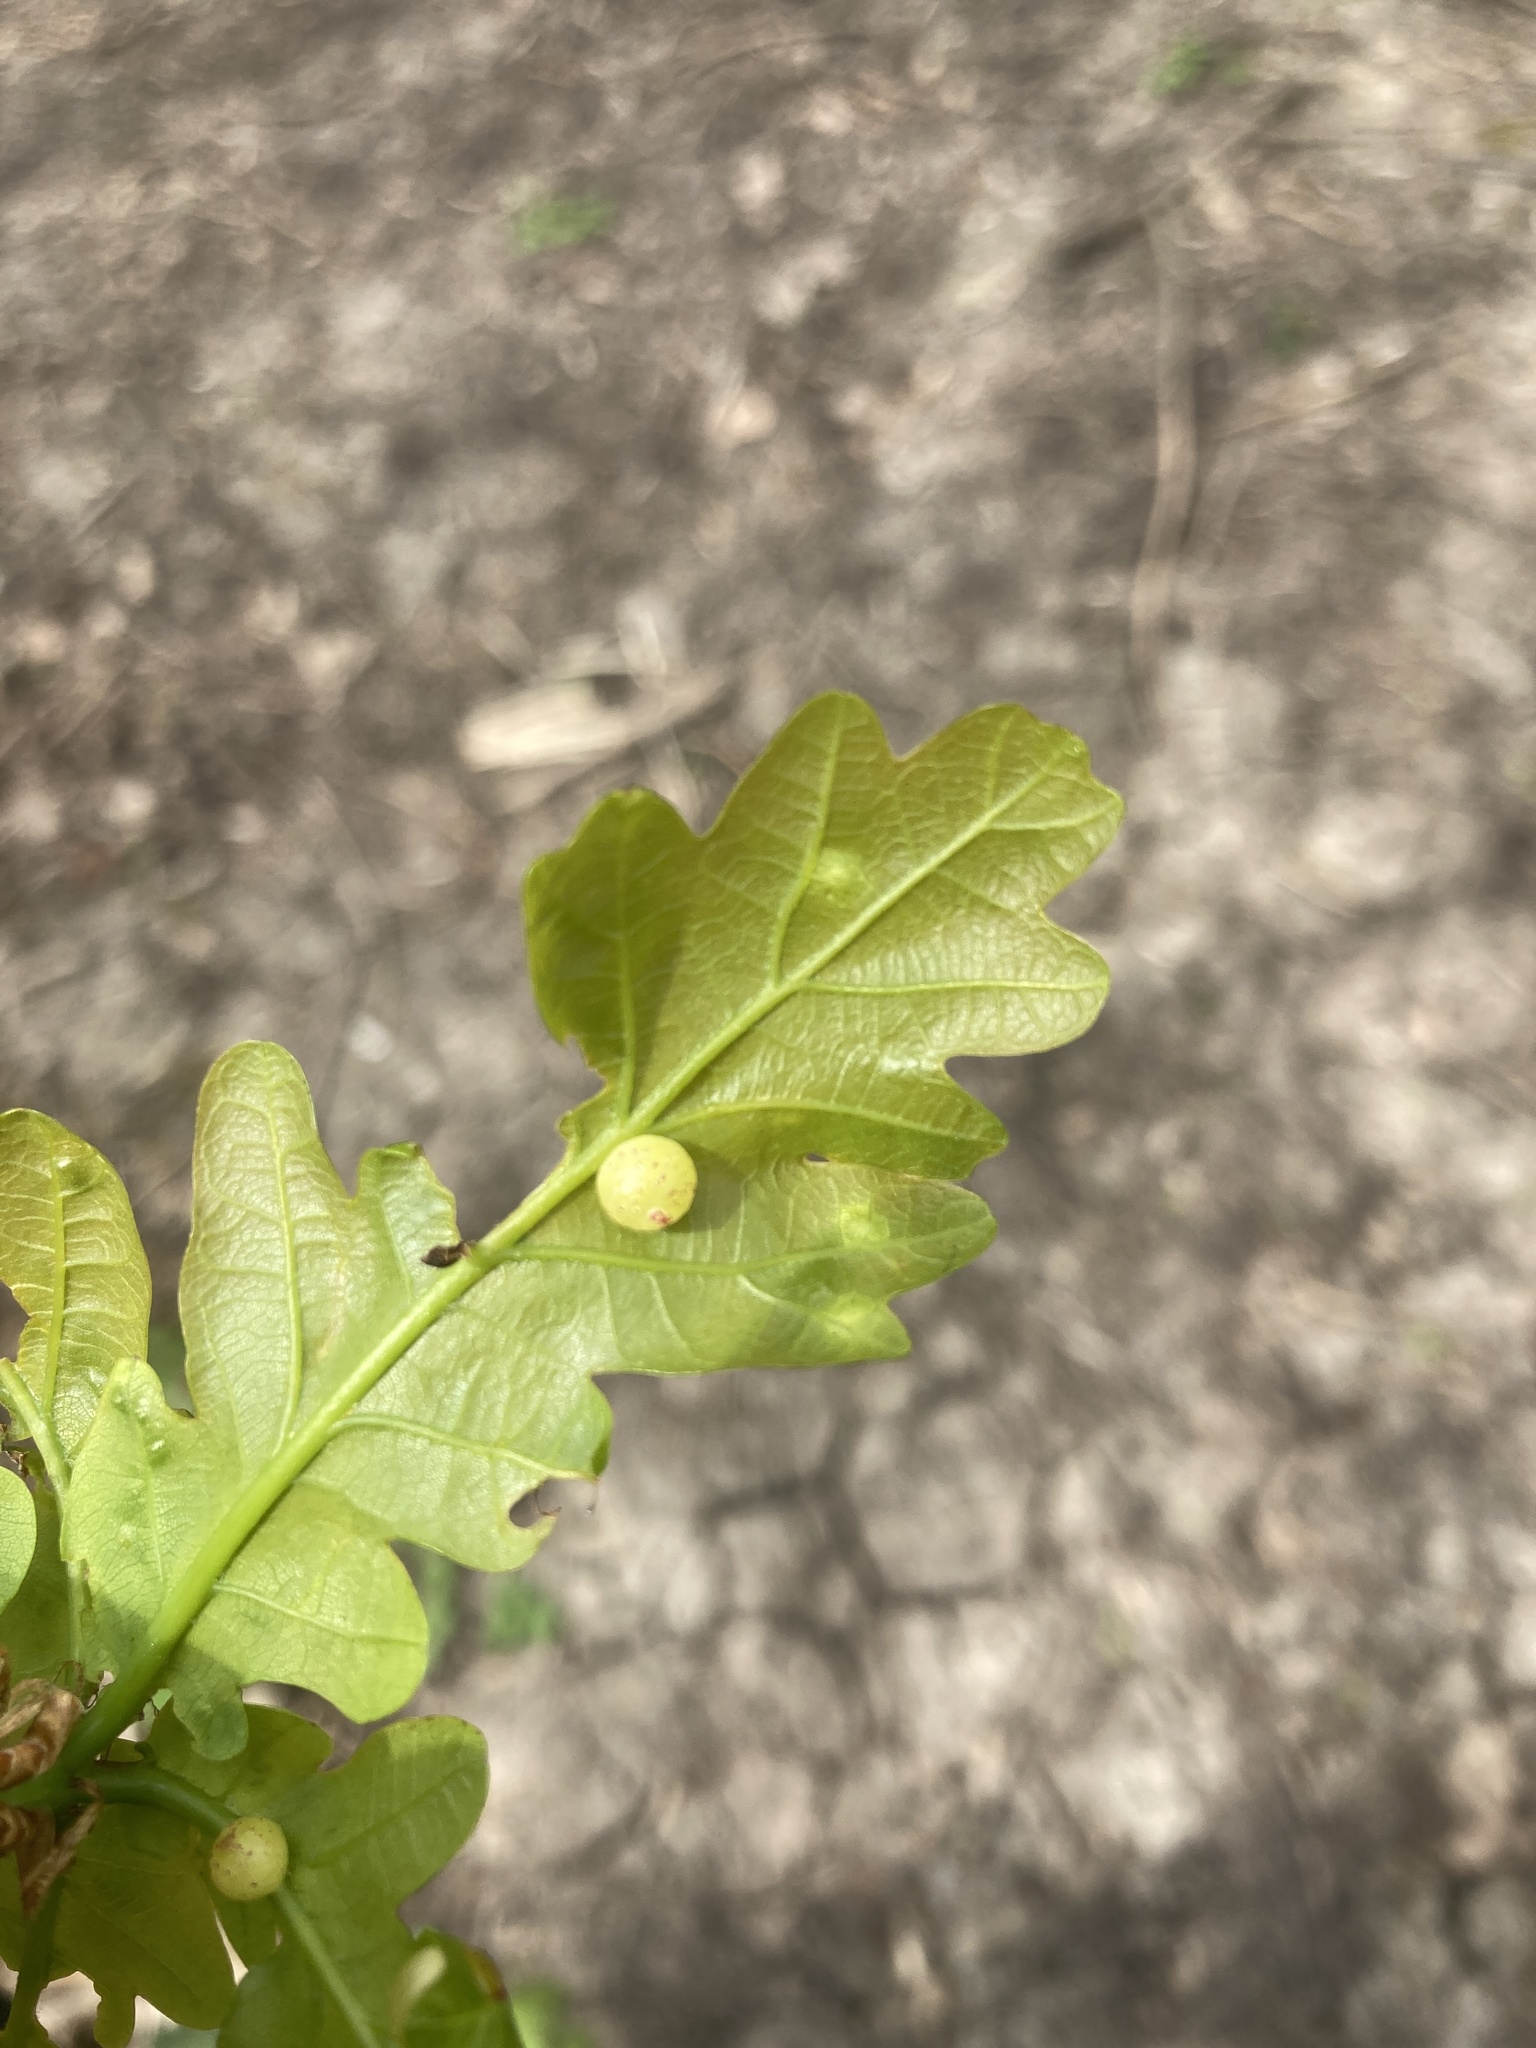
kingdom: Animalia
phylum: Arthropoda
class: Insecta
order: Hymenoptera
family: Cynipidae
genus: Neuroterus
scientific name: Neuroterus quercusbaccarum
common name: Common spangle gall
